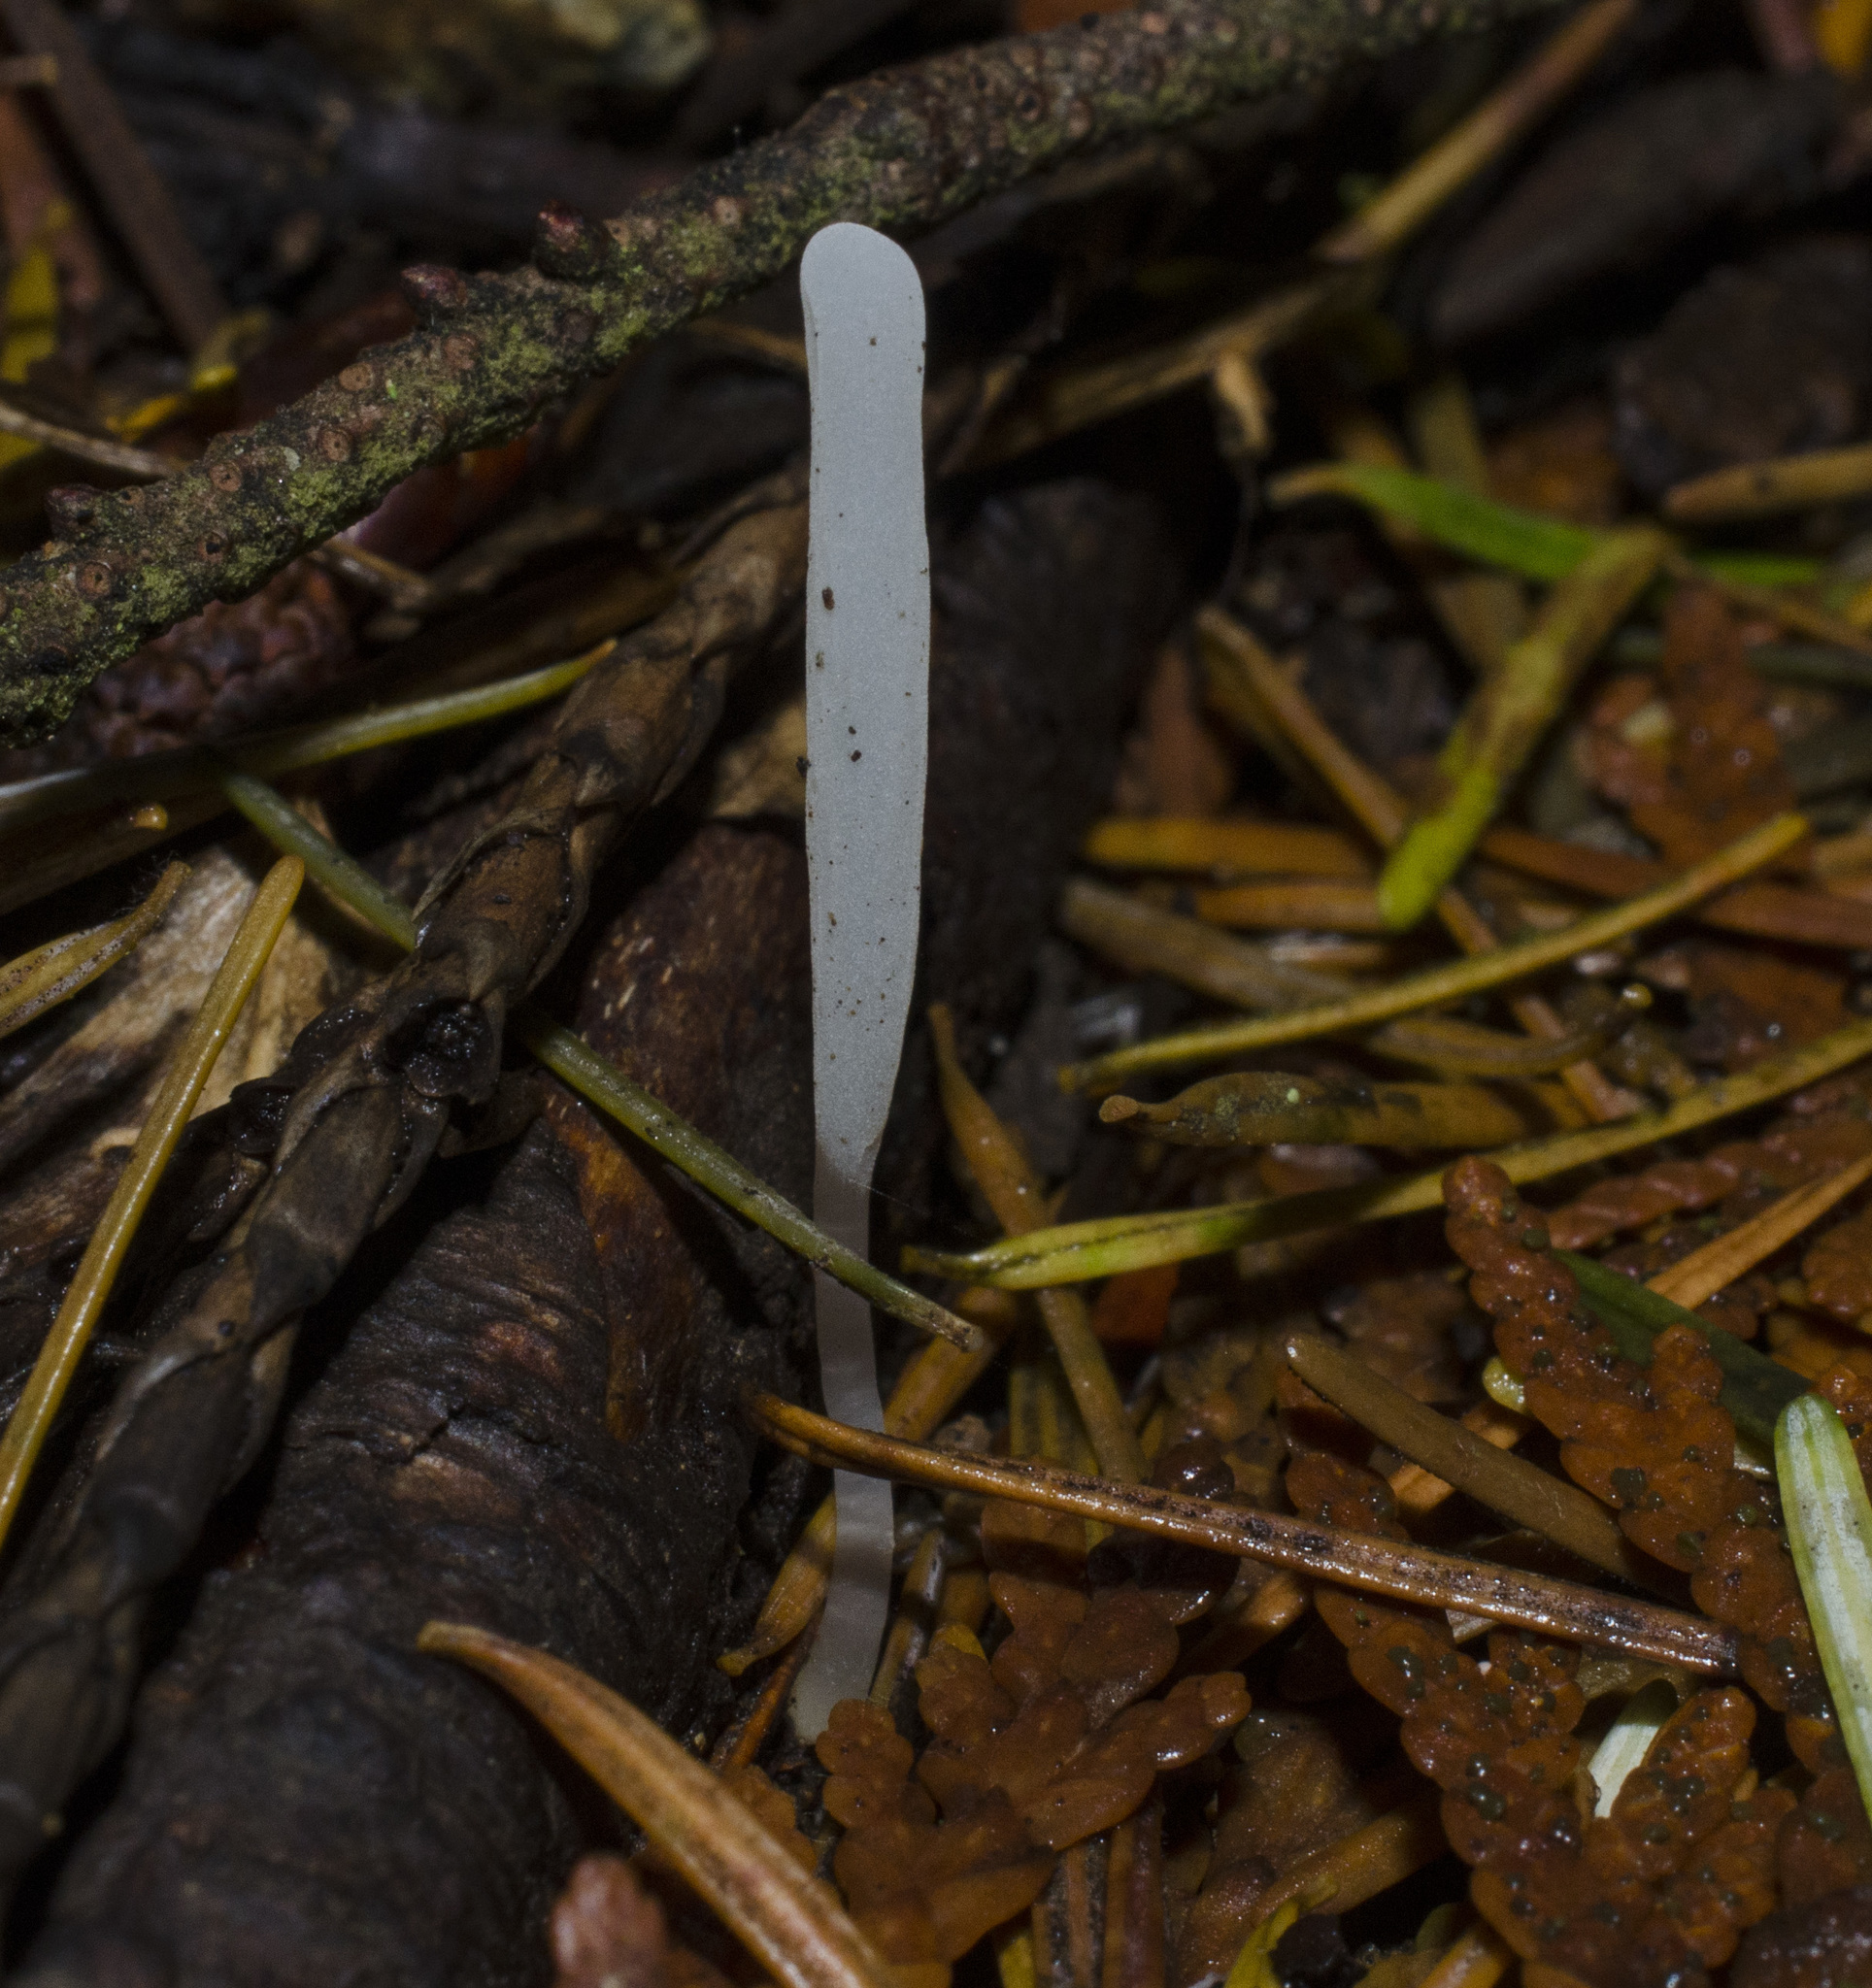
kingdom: Fungi
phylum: Basidiomycota
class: Agaricomycetes
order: Agaricales
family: Clavariaceae
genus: Clavaria
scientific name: Clavaria acuta
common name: Pointed club
